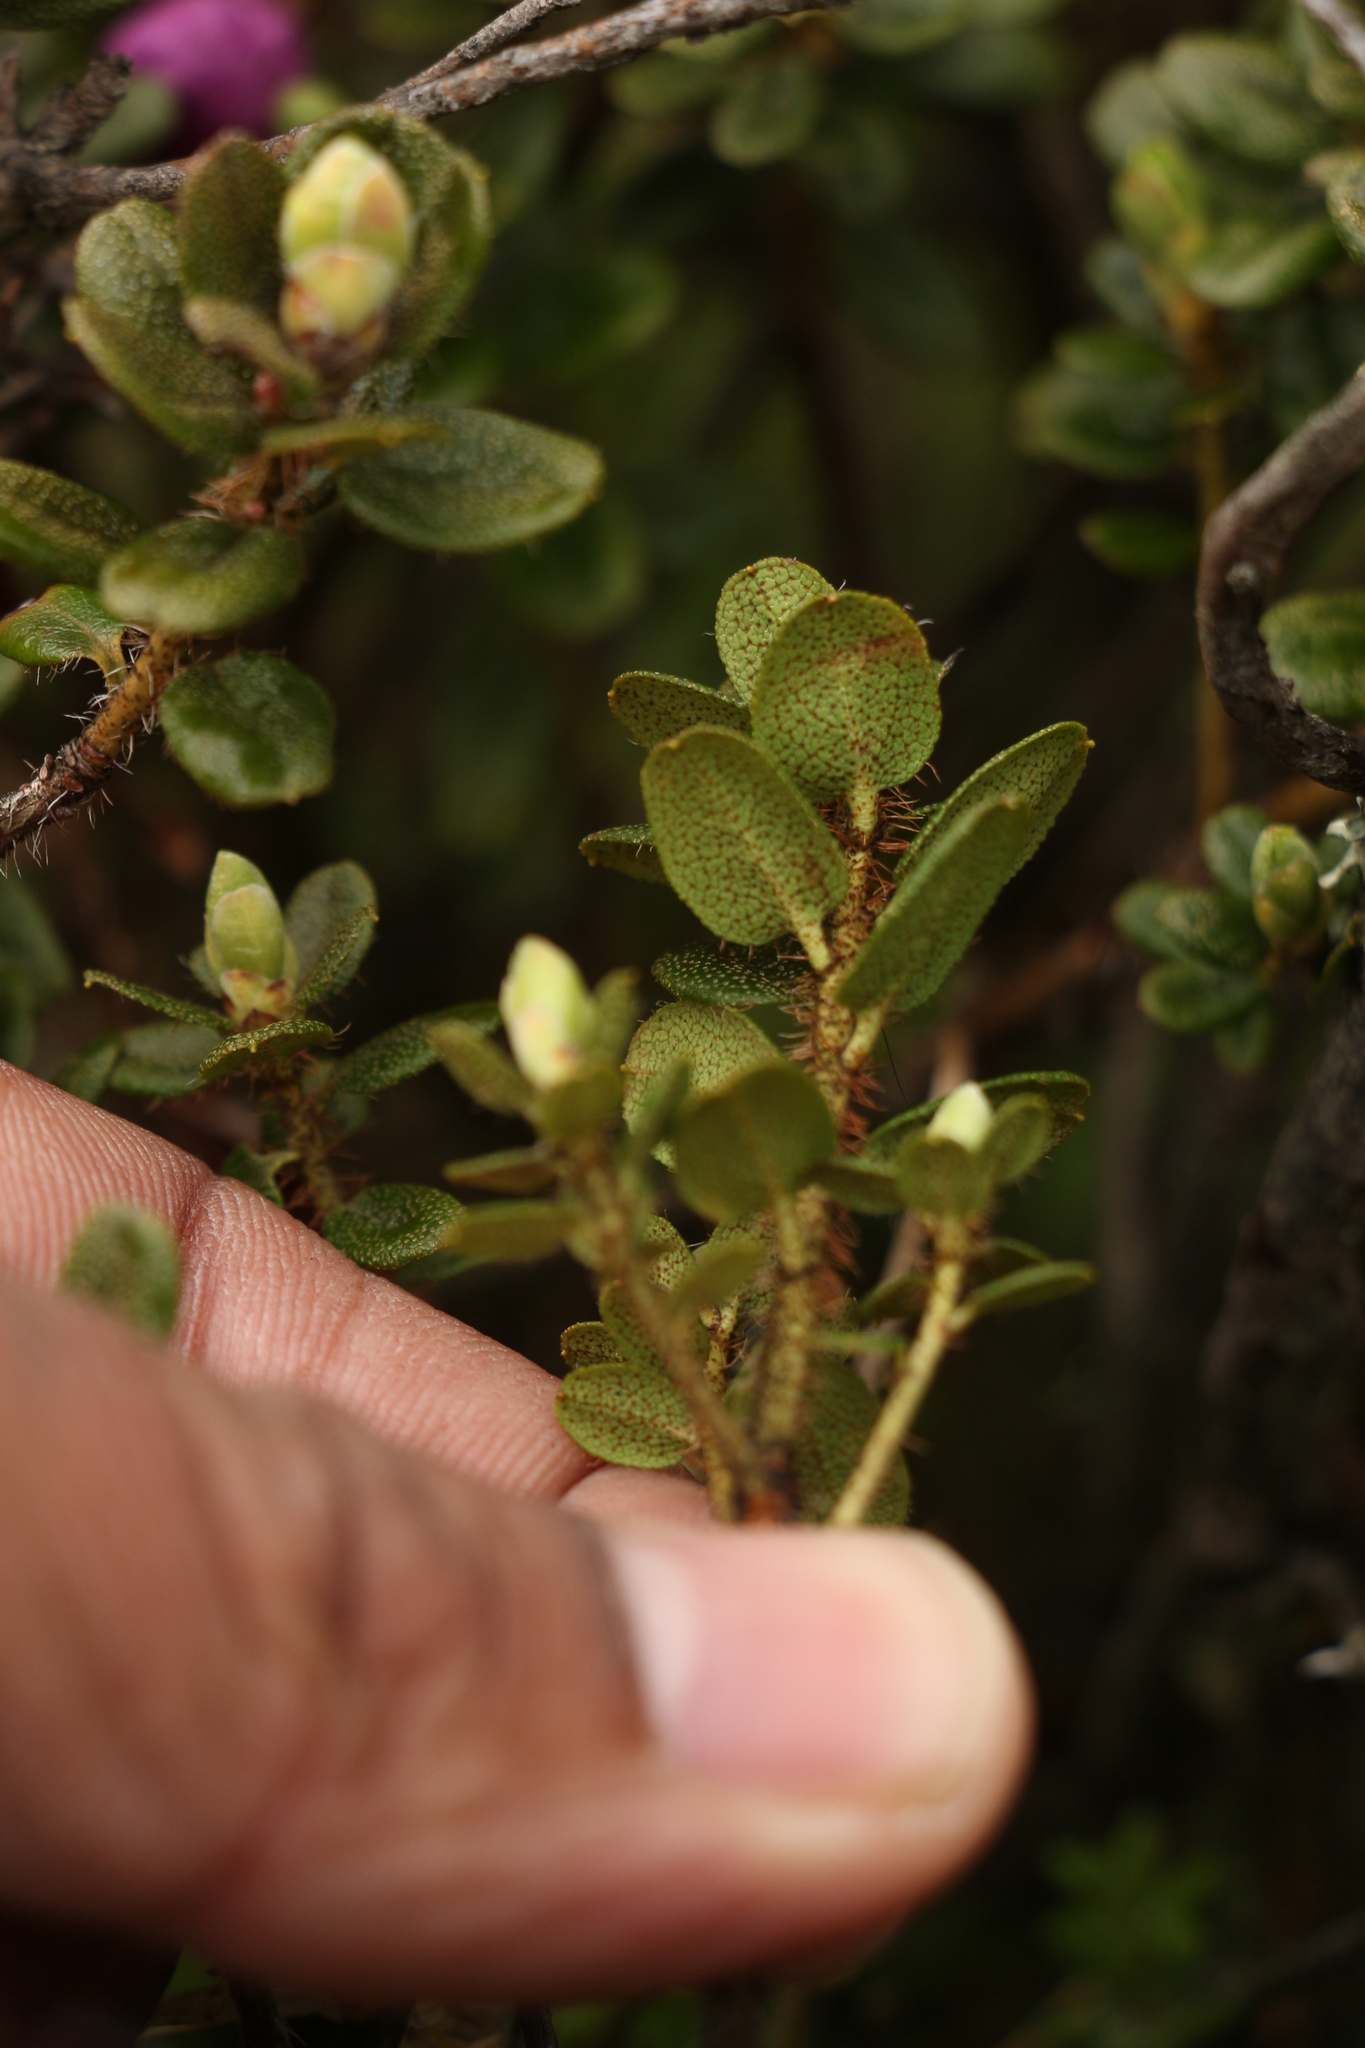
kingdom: Plantae
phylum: Tracheophyta
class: Magnoliopsida
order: Ericales
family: Ericaceae
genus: Rhododendron
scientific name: Rhododendron setosum
